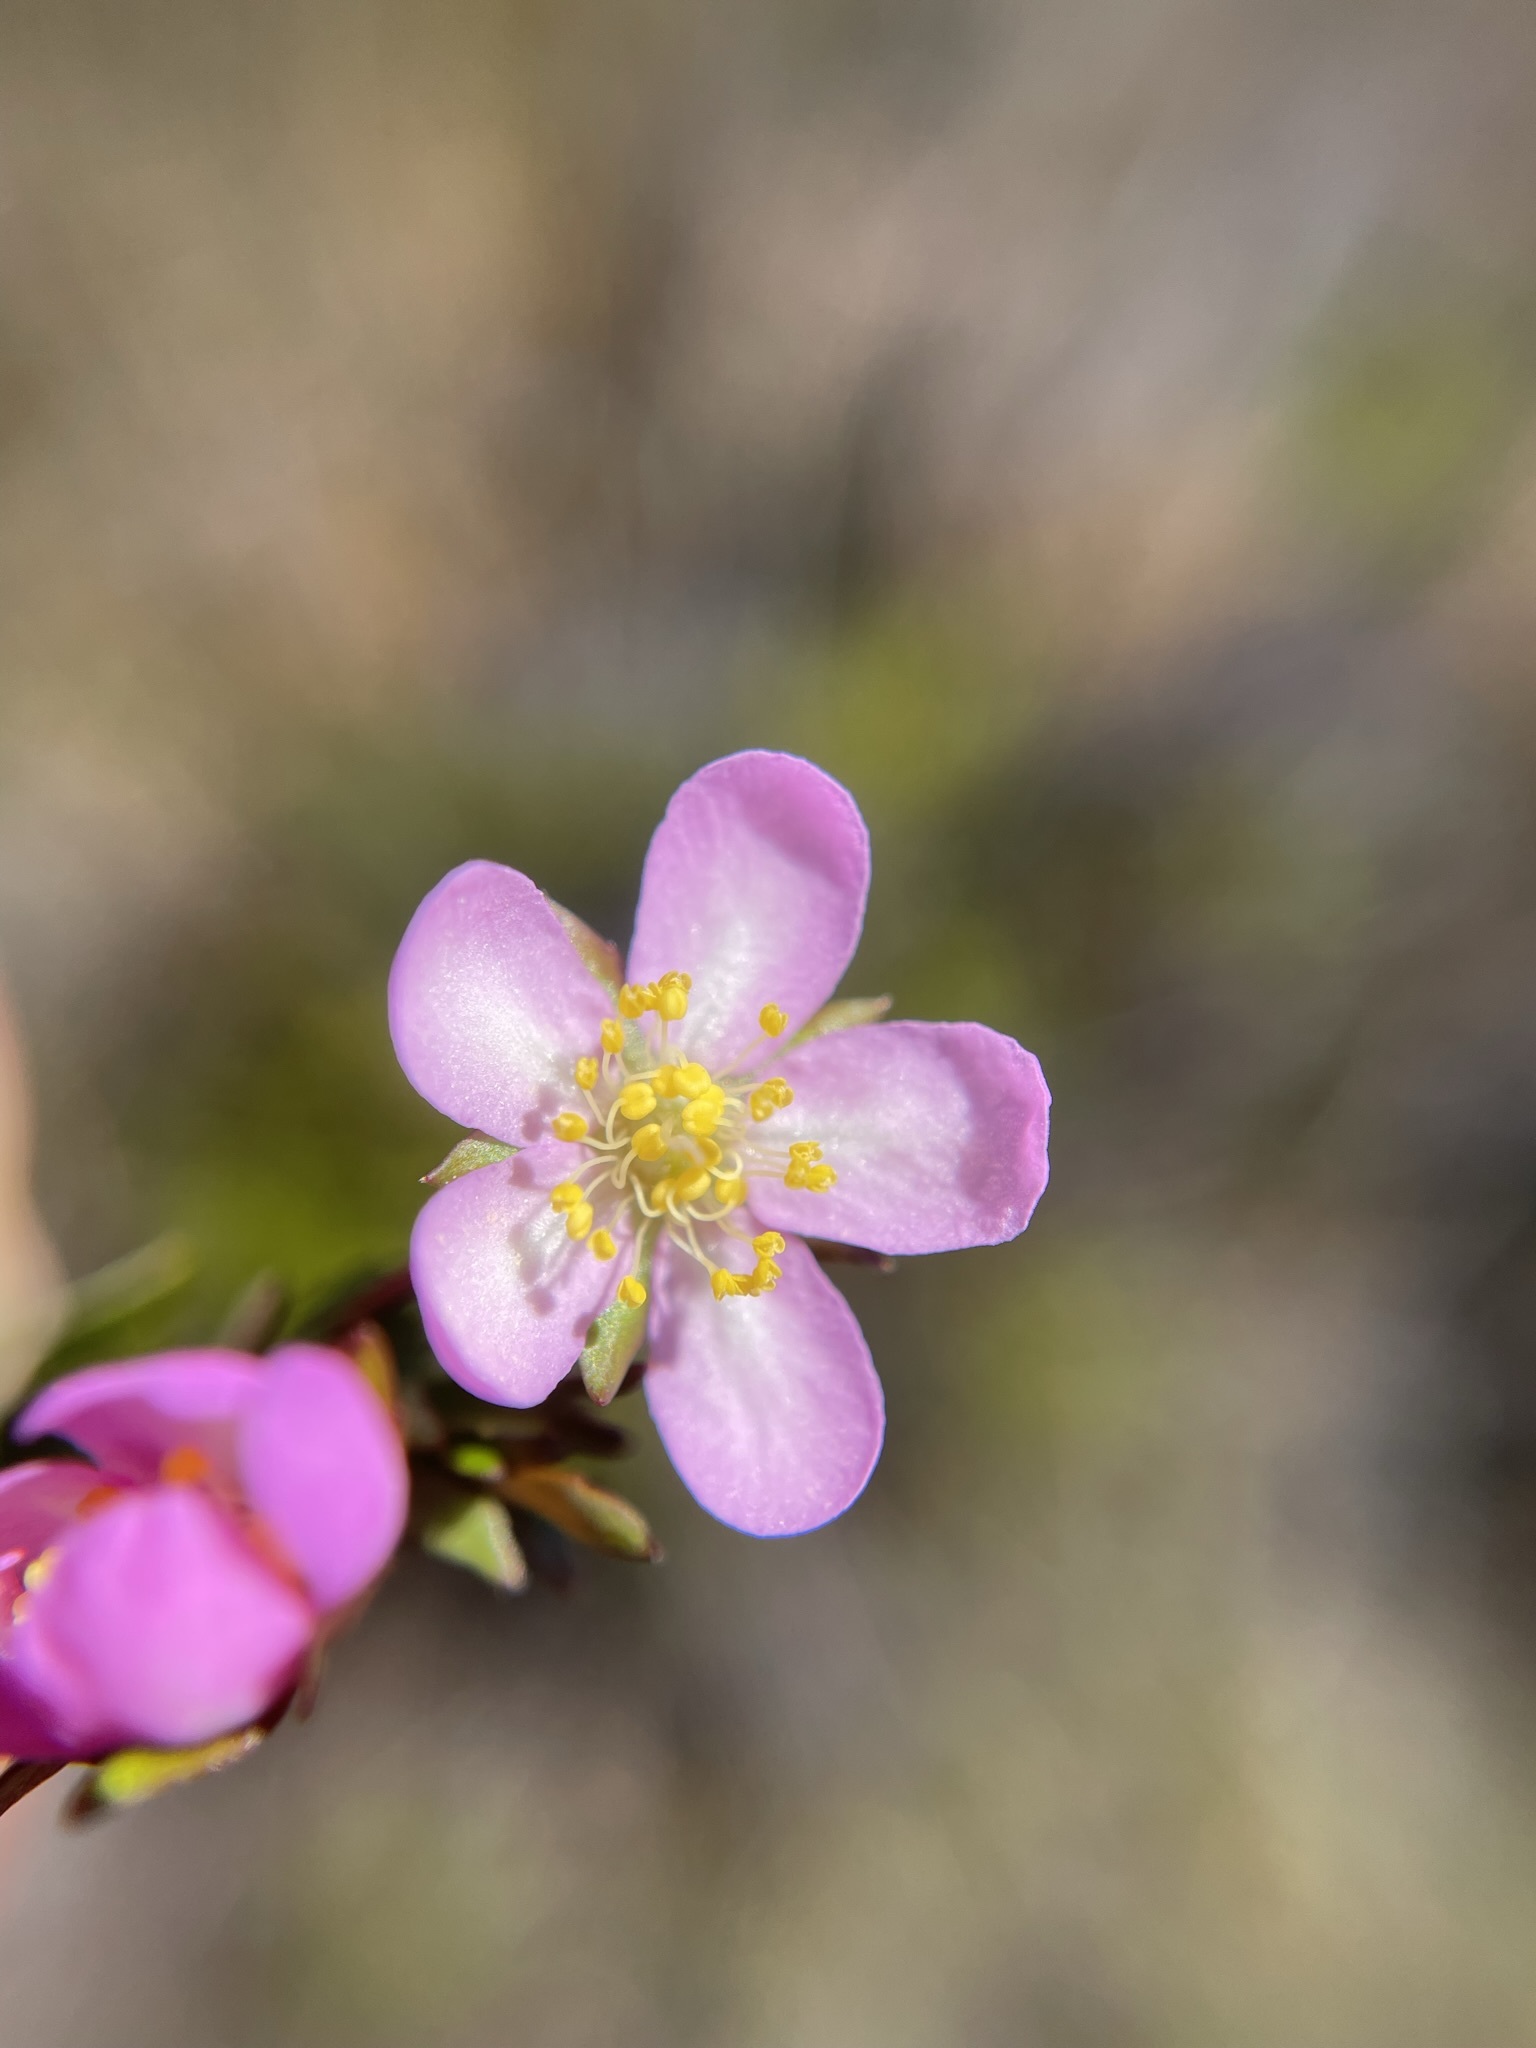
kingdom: Plantae
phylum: Tracheophyta
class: Magnoliopsida
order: Oxalidales
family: Cunoniaceae
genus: Bauera
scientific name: Bauera rubioides
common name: River-rose
